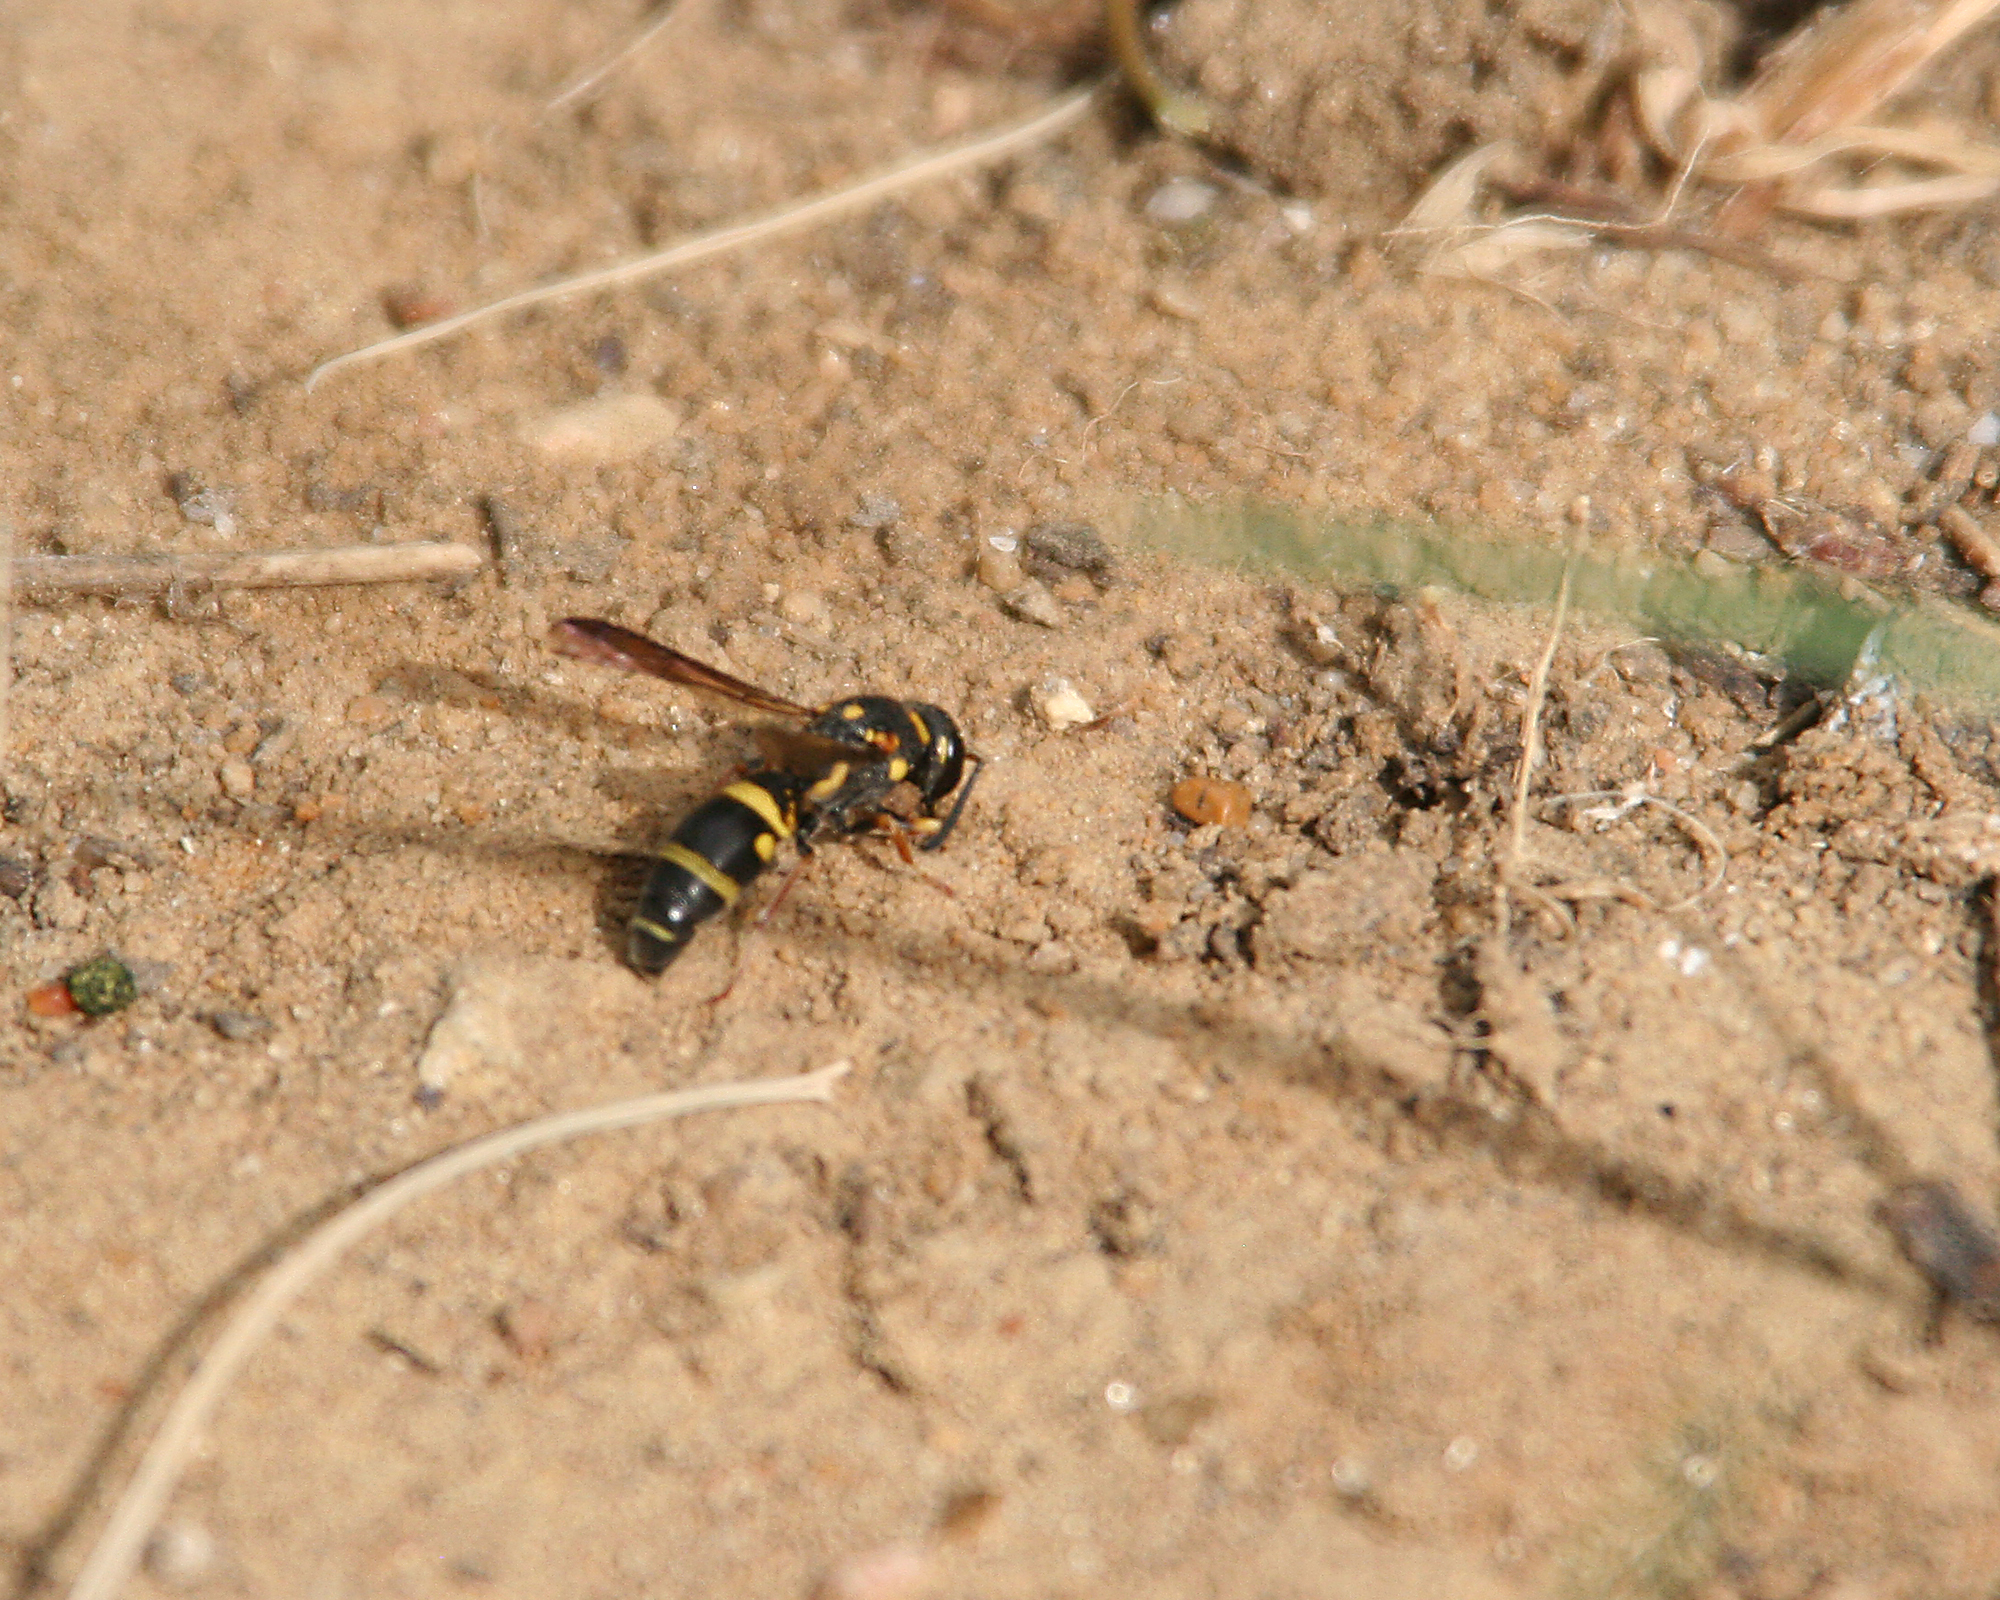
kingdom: Animalia
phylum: Arthropoda
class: Insecta
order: Hymenoptera
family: Eumenidae
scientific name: Eumenidae
